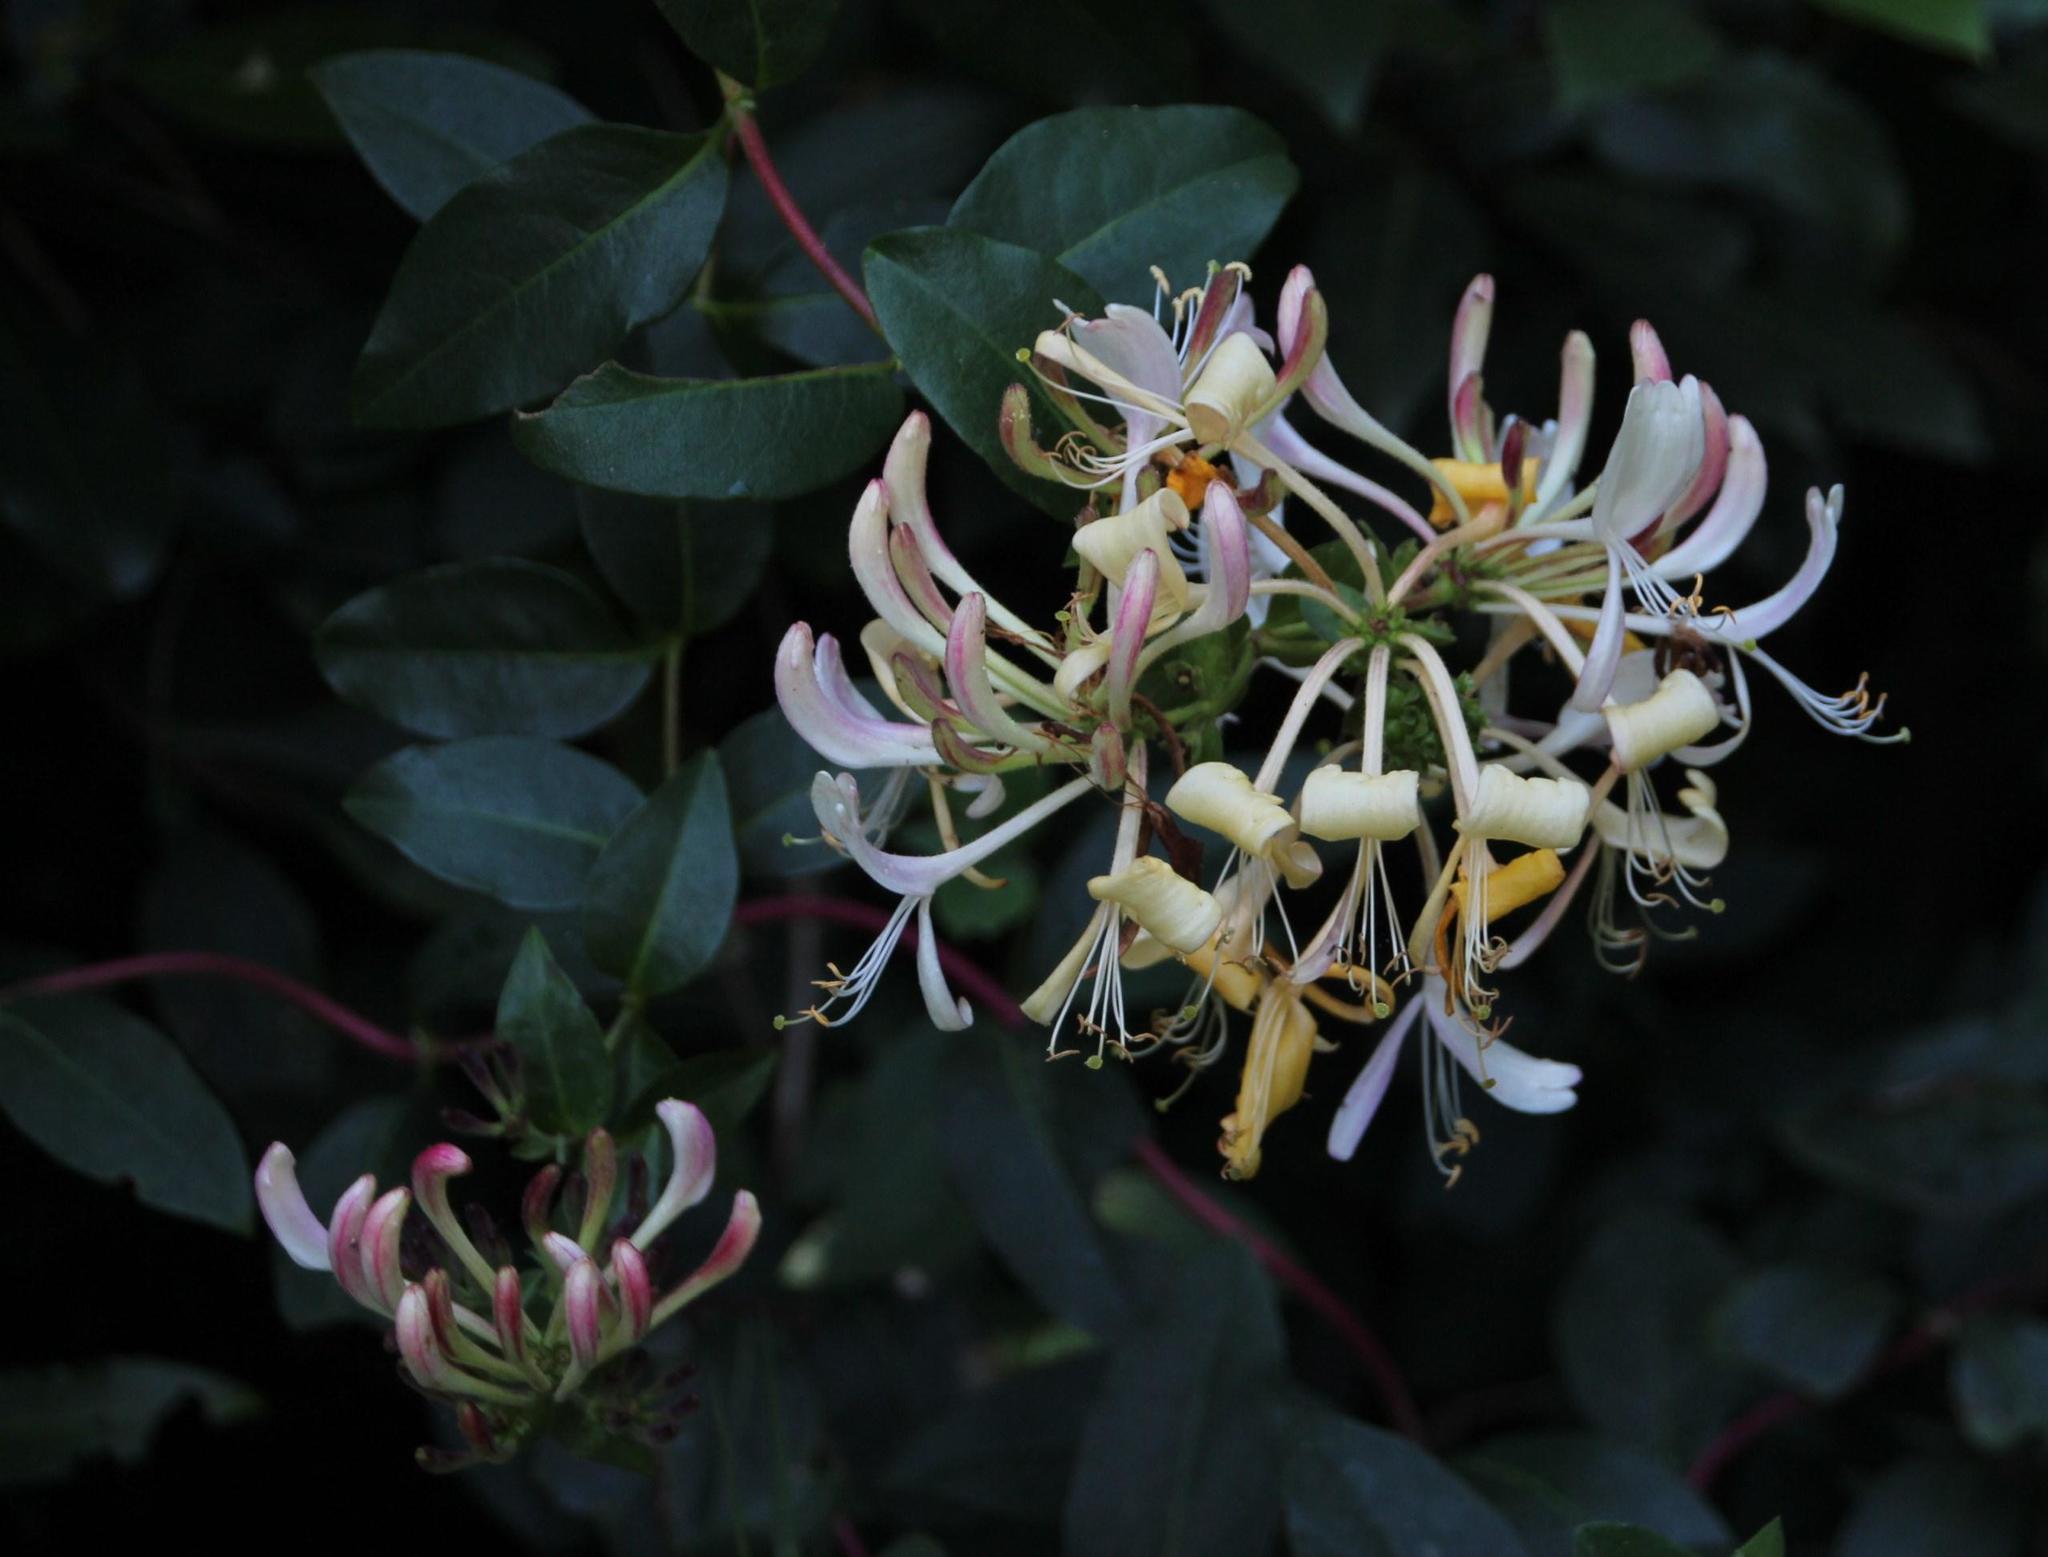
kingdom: Plantae
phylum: Tracheophyta
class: Magnoliopsida
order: Dipsacales
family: Caprifoliaceae
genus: Lonicera
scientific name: Lonicera periclymenum
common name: European honeysuckle
